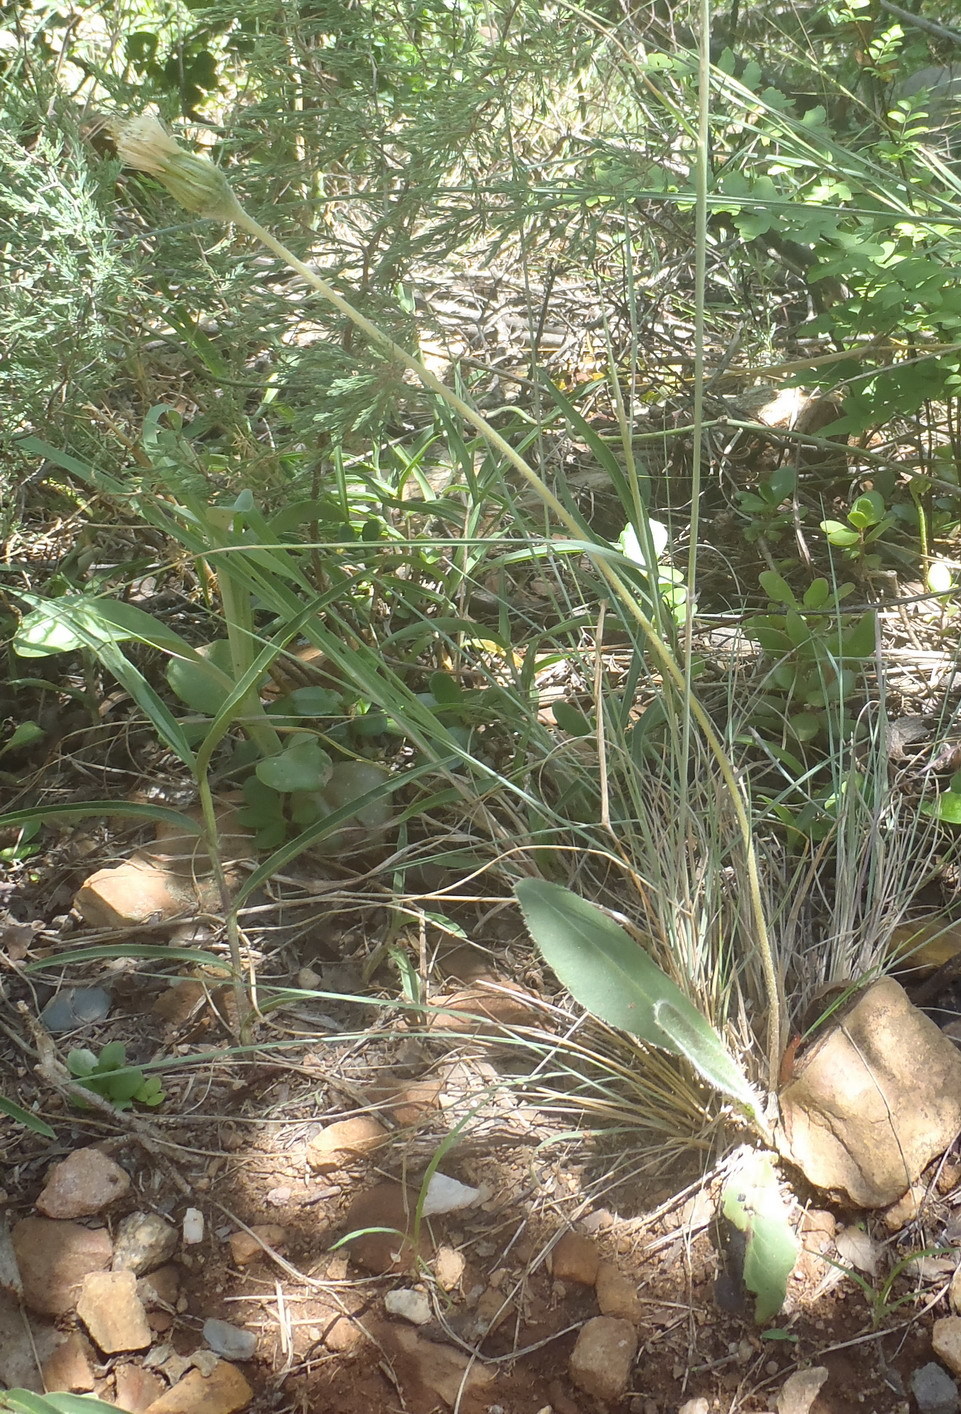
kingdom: Plantae
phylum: Tracheophyta
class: Magnoliopsida
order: Asterales
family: Asteraceae
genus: Piloselloides
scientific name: Piloselloides hirsuta
